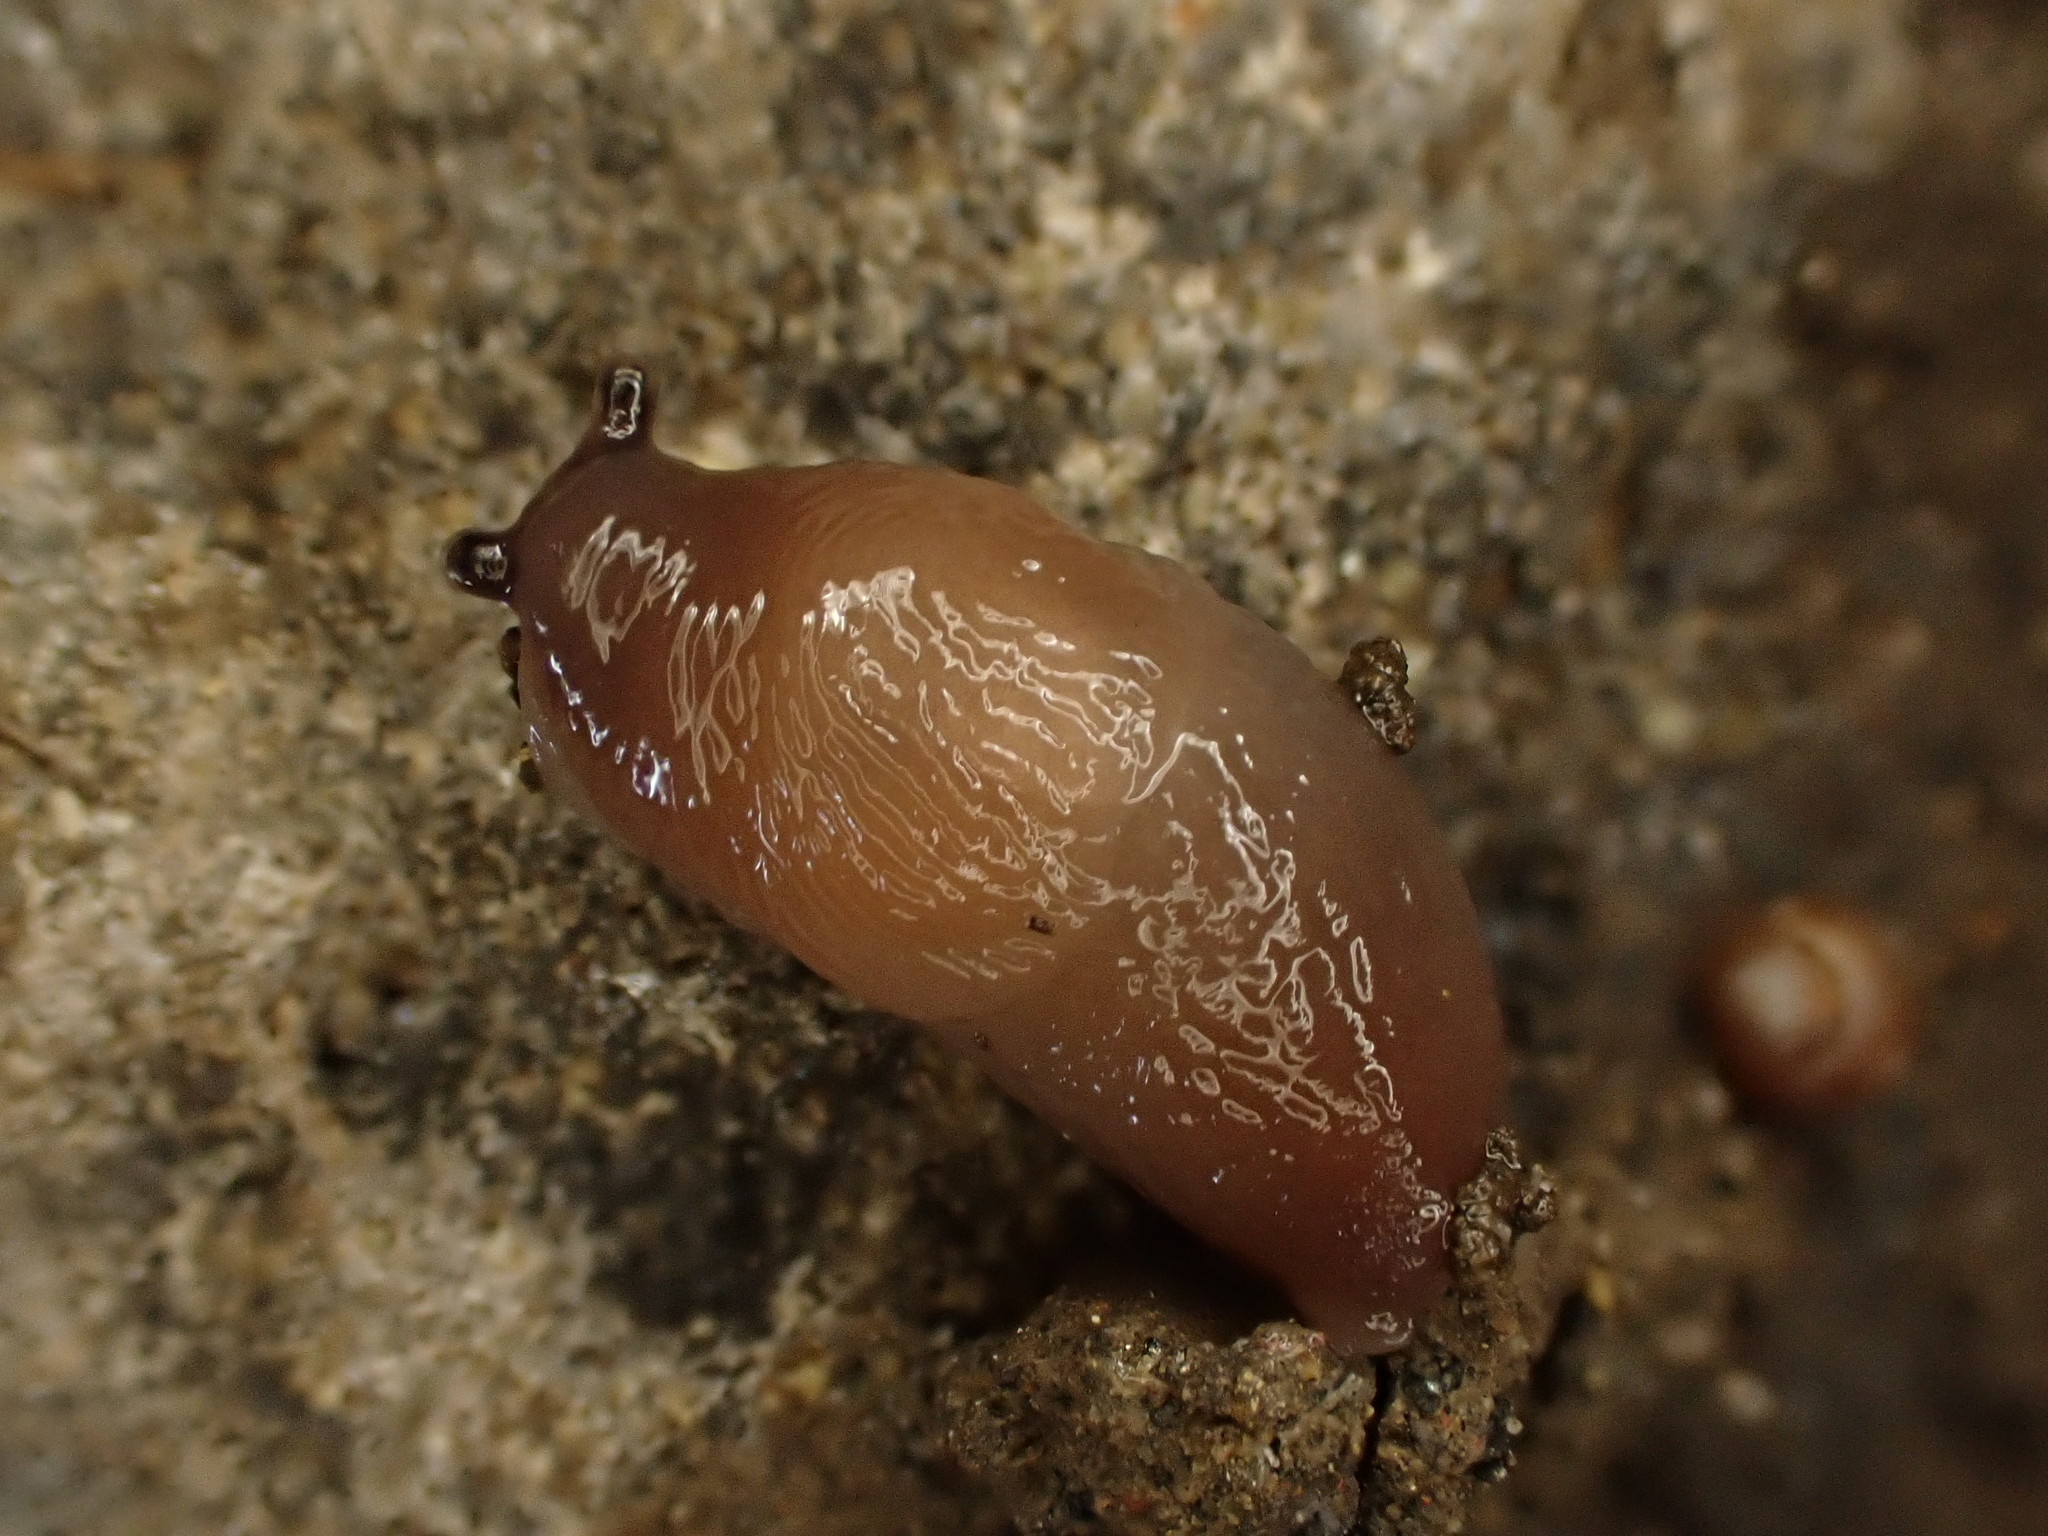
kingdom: Animalia
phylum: Mollusca
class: Gastropoda
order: Stylommatophora
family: Agriolimacidae
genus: Deroceras
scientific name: Deroceras invadens
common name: Caruana's slug
